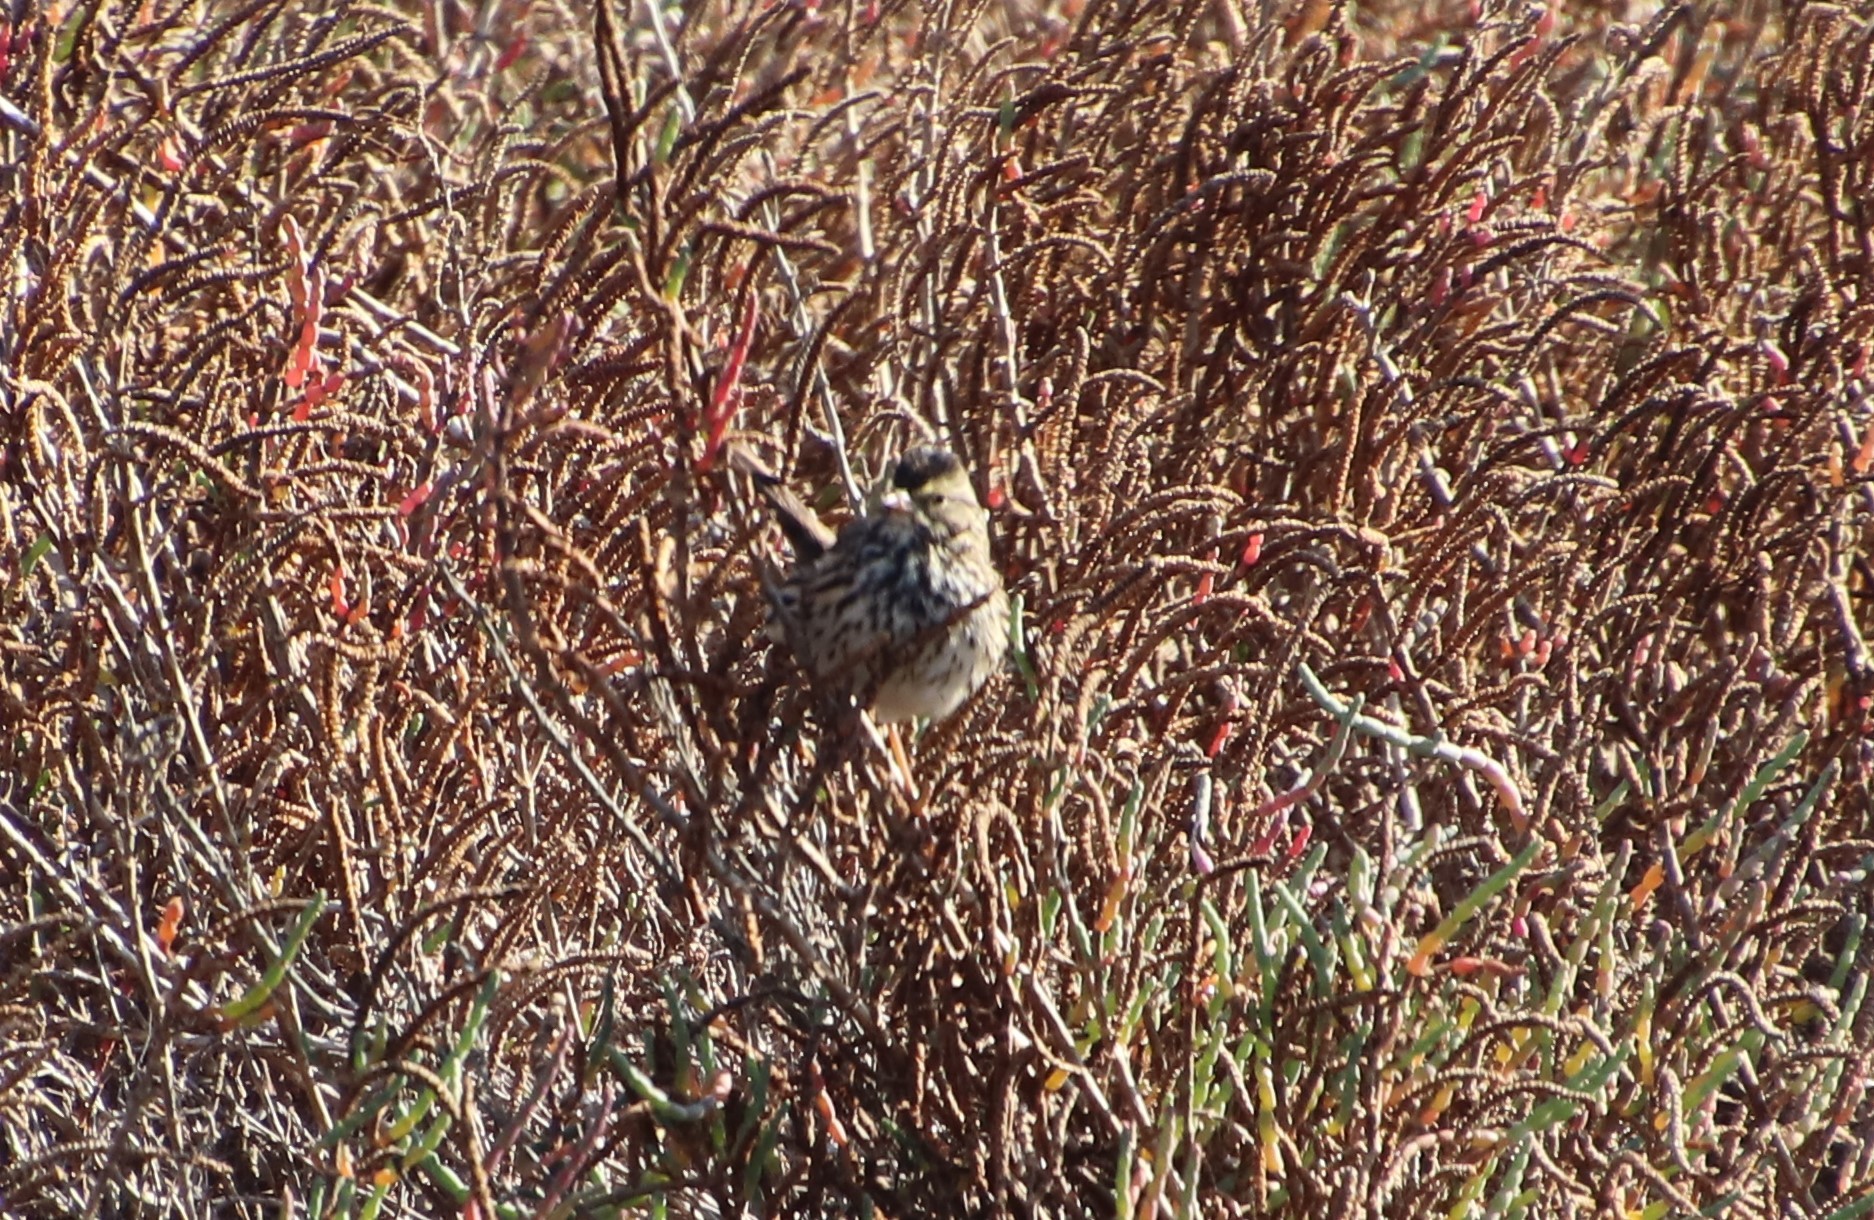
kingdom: Animalia
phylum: Chordata
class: Aves
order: Passeriformes
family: Passerellidae
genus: Passerculus
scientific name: Passerculus sandwichensis
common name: Savannah sparrow
